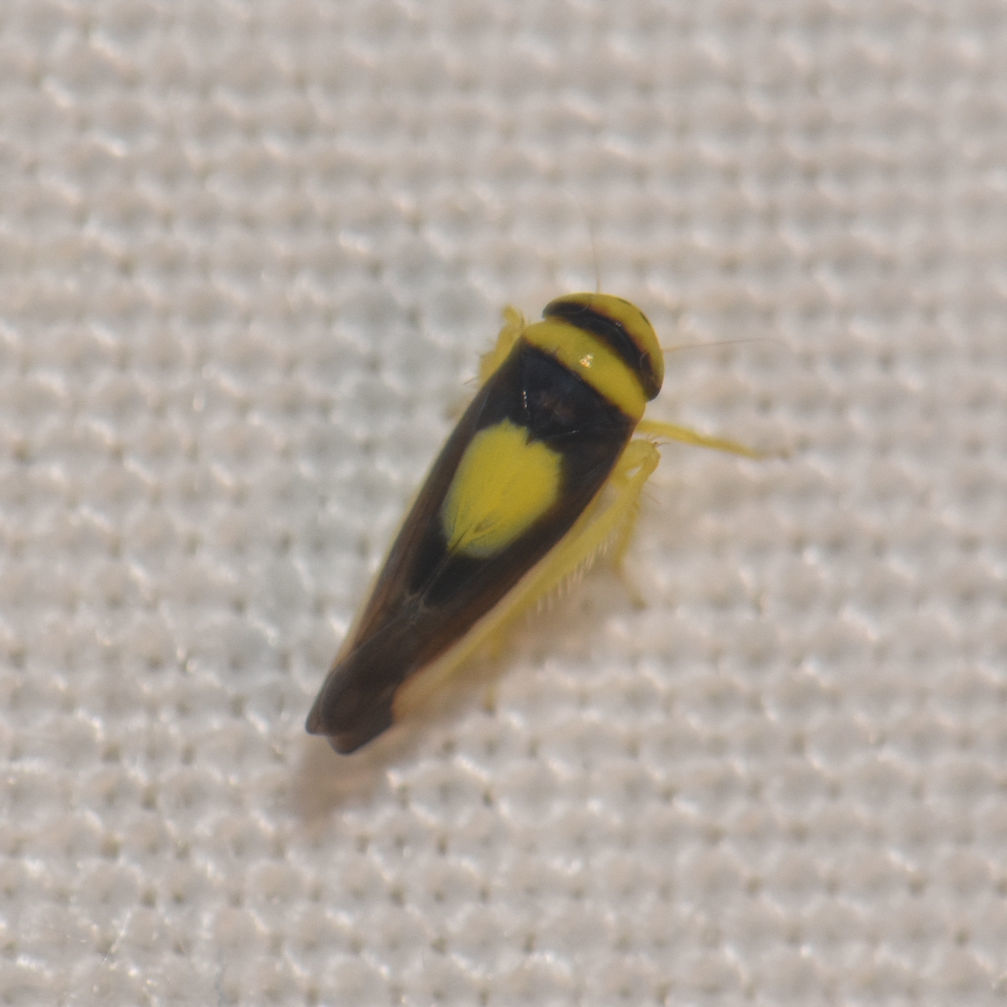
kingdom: Animalia
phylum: Arthropoda
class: Insecta
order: Hemiptera
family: Cicadellidae
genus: Colladonus
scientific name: Colladonus clitellarius
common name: The saddleback leafhopper
